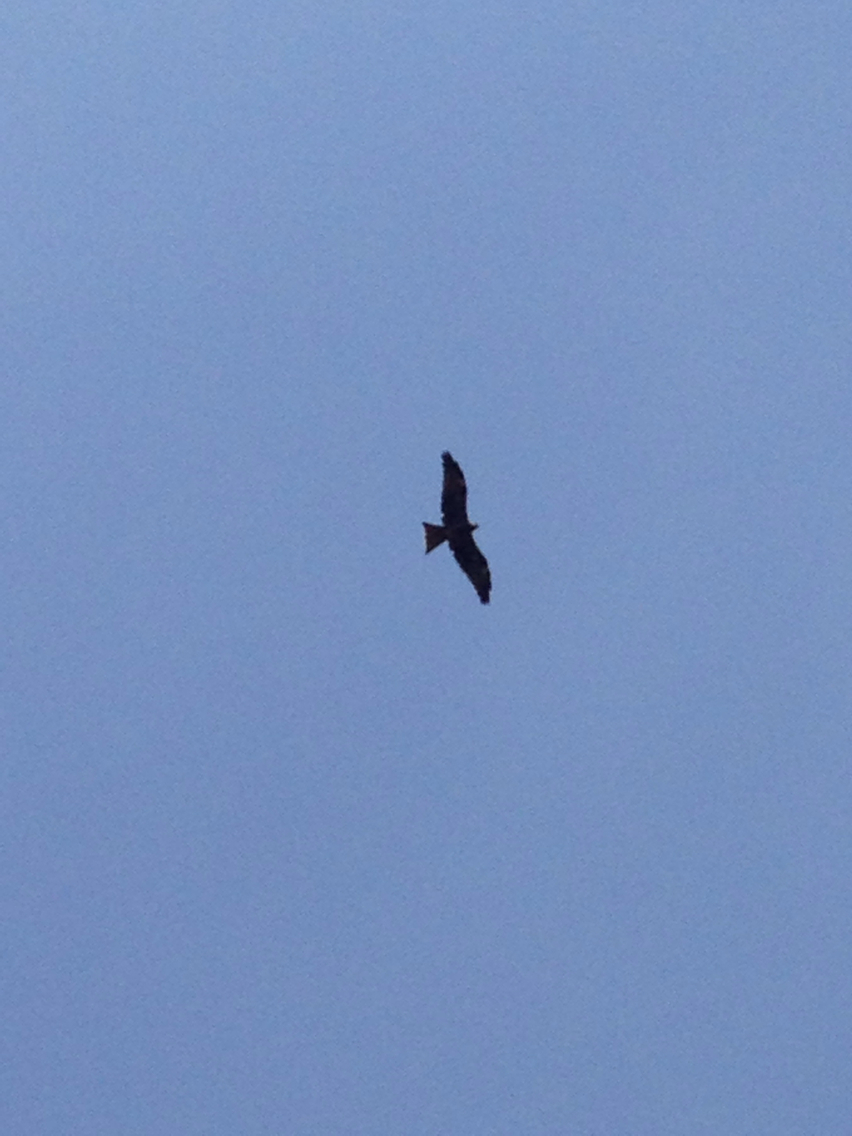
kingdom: Animalia
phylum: Chordata
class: Aves
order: Accipitriformes
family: Accipitridae
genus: Milvus
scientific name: Milvus migrans
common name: Black kite
